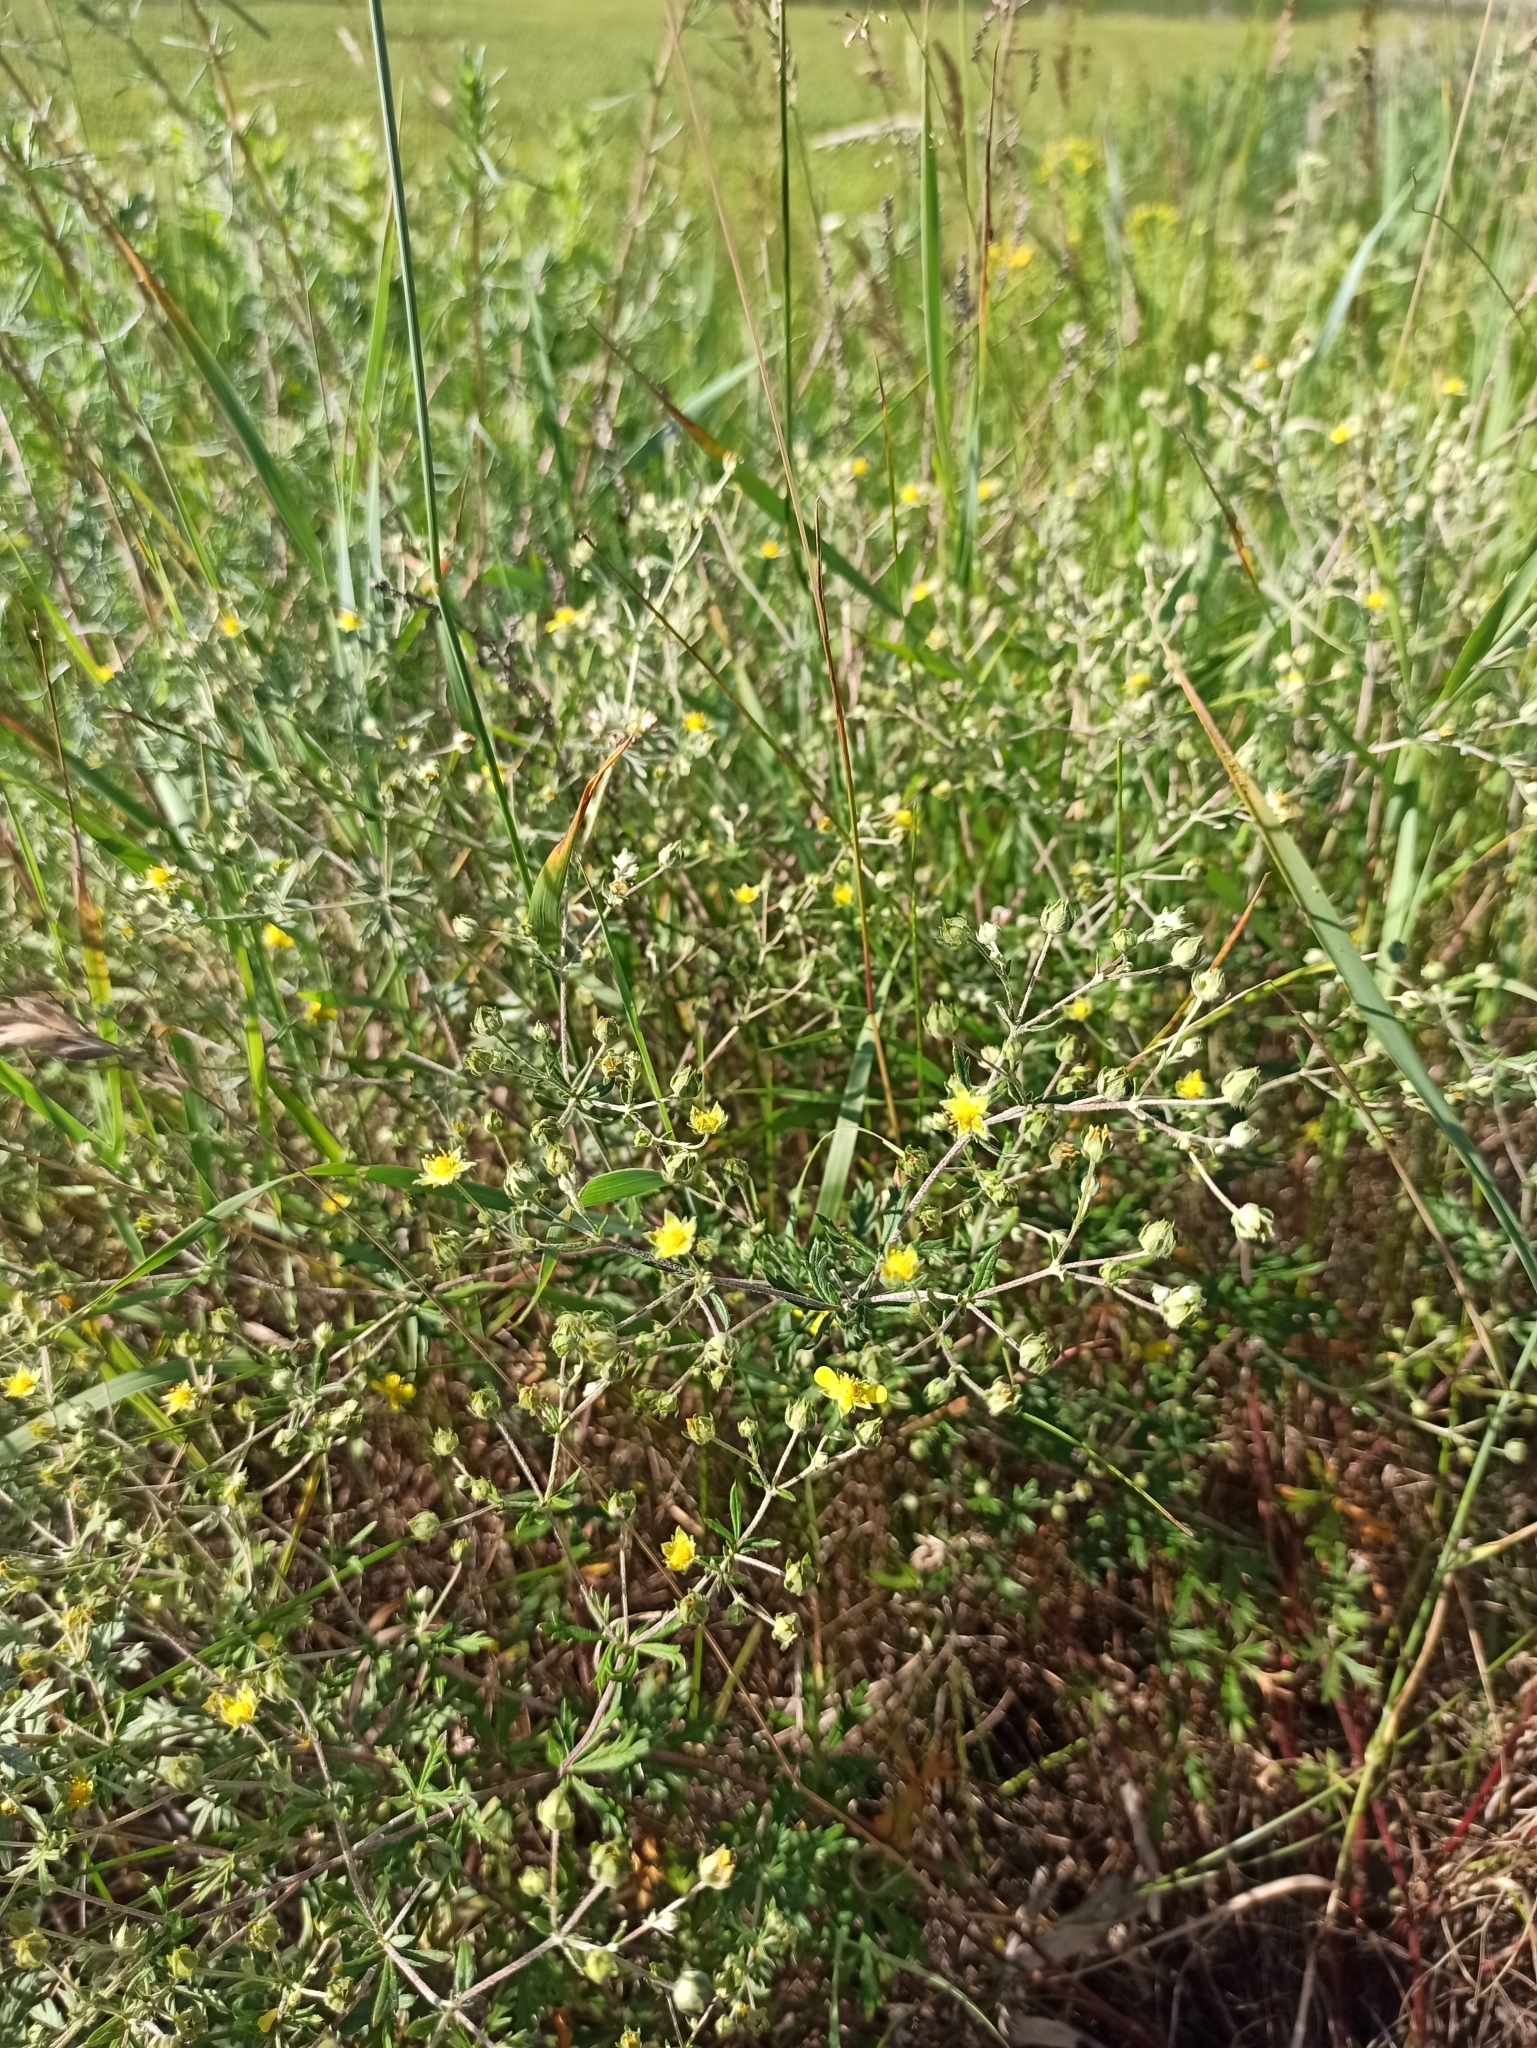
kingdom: Plantae
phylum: Tracheophyta
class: Magnoliopsida
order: Rosales
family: Rosaceae
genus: Potentilla
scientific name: Potentilla argentea
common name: Hoary cinquefoil
